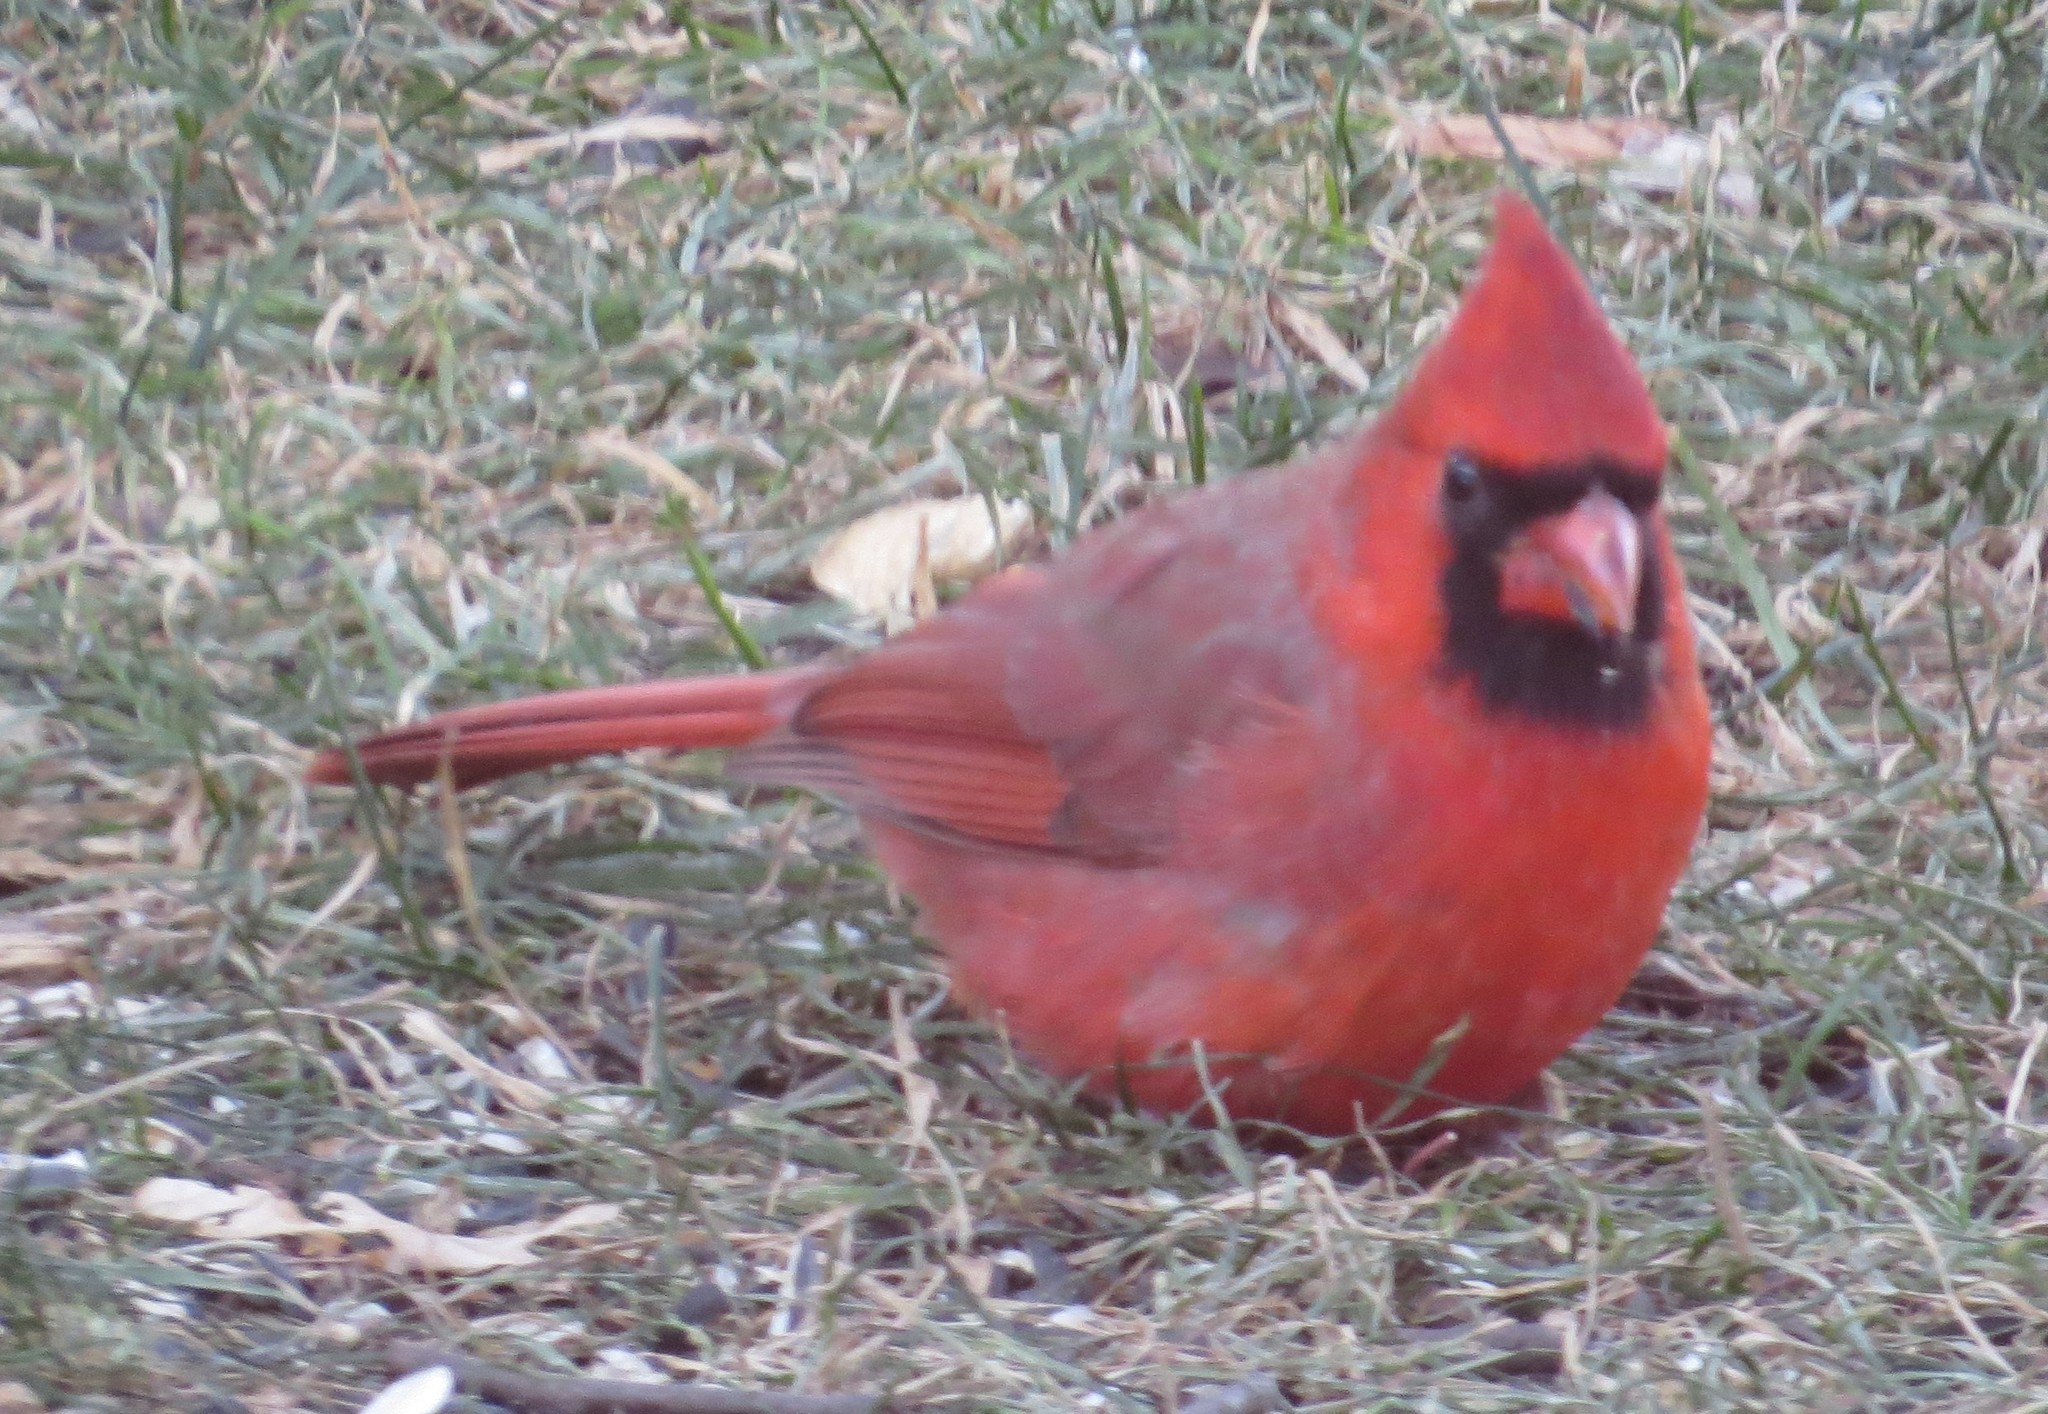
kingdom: Animalia
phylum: Chordata
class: Aves
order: Passeriformes
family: Cardinalidae
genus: Cardinalis
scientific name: Cardinalis cardinalis
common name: Northern cardinal
